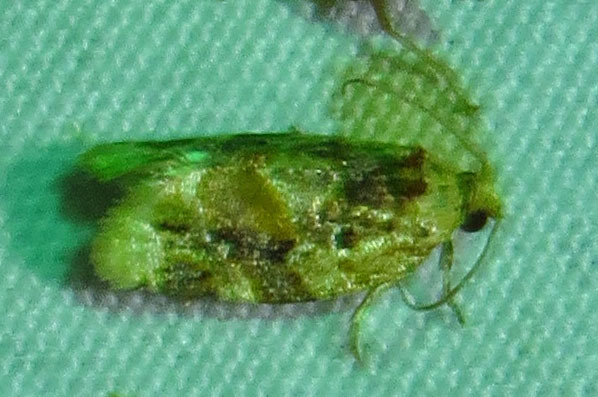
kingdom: Animalia
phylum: Arthropoda
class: Insecta
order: Lepidoptera
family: Tortricidae
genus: Argyrotaenia
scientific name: Argyrotaenia velutinana
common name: Red-banded leafroller moth
